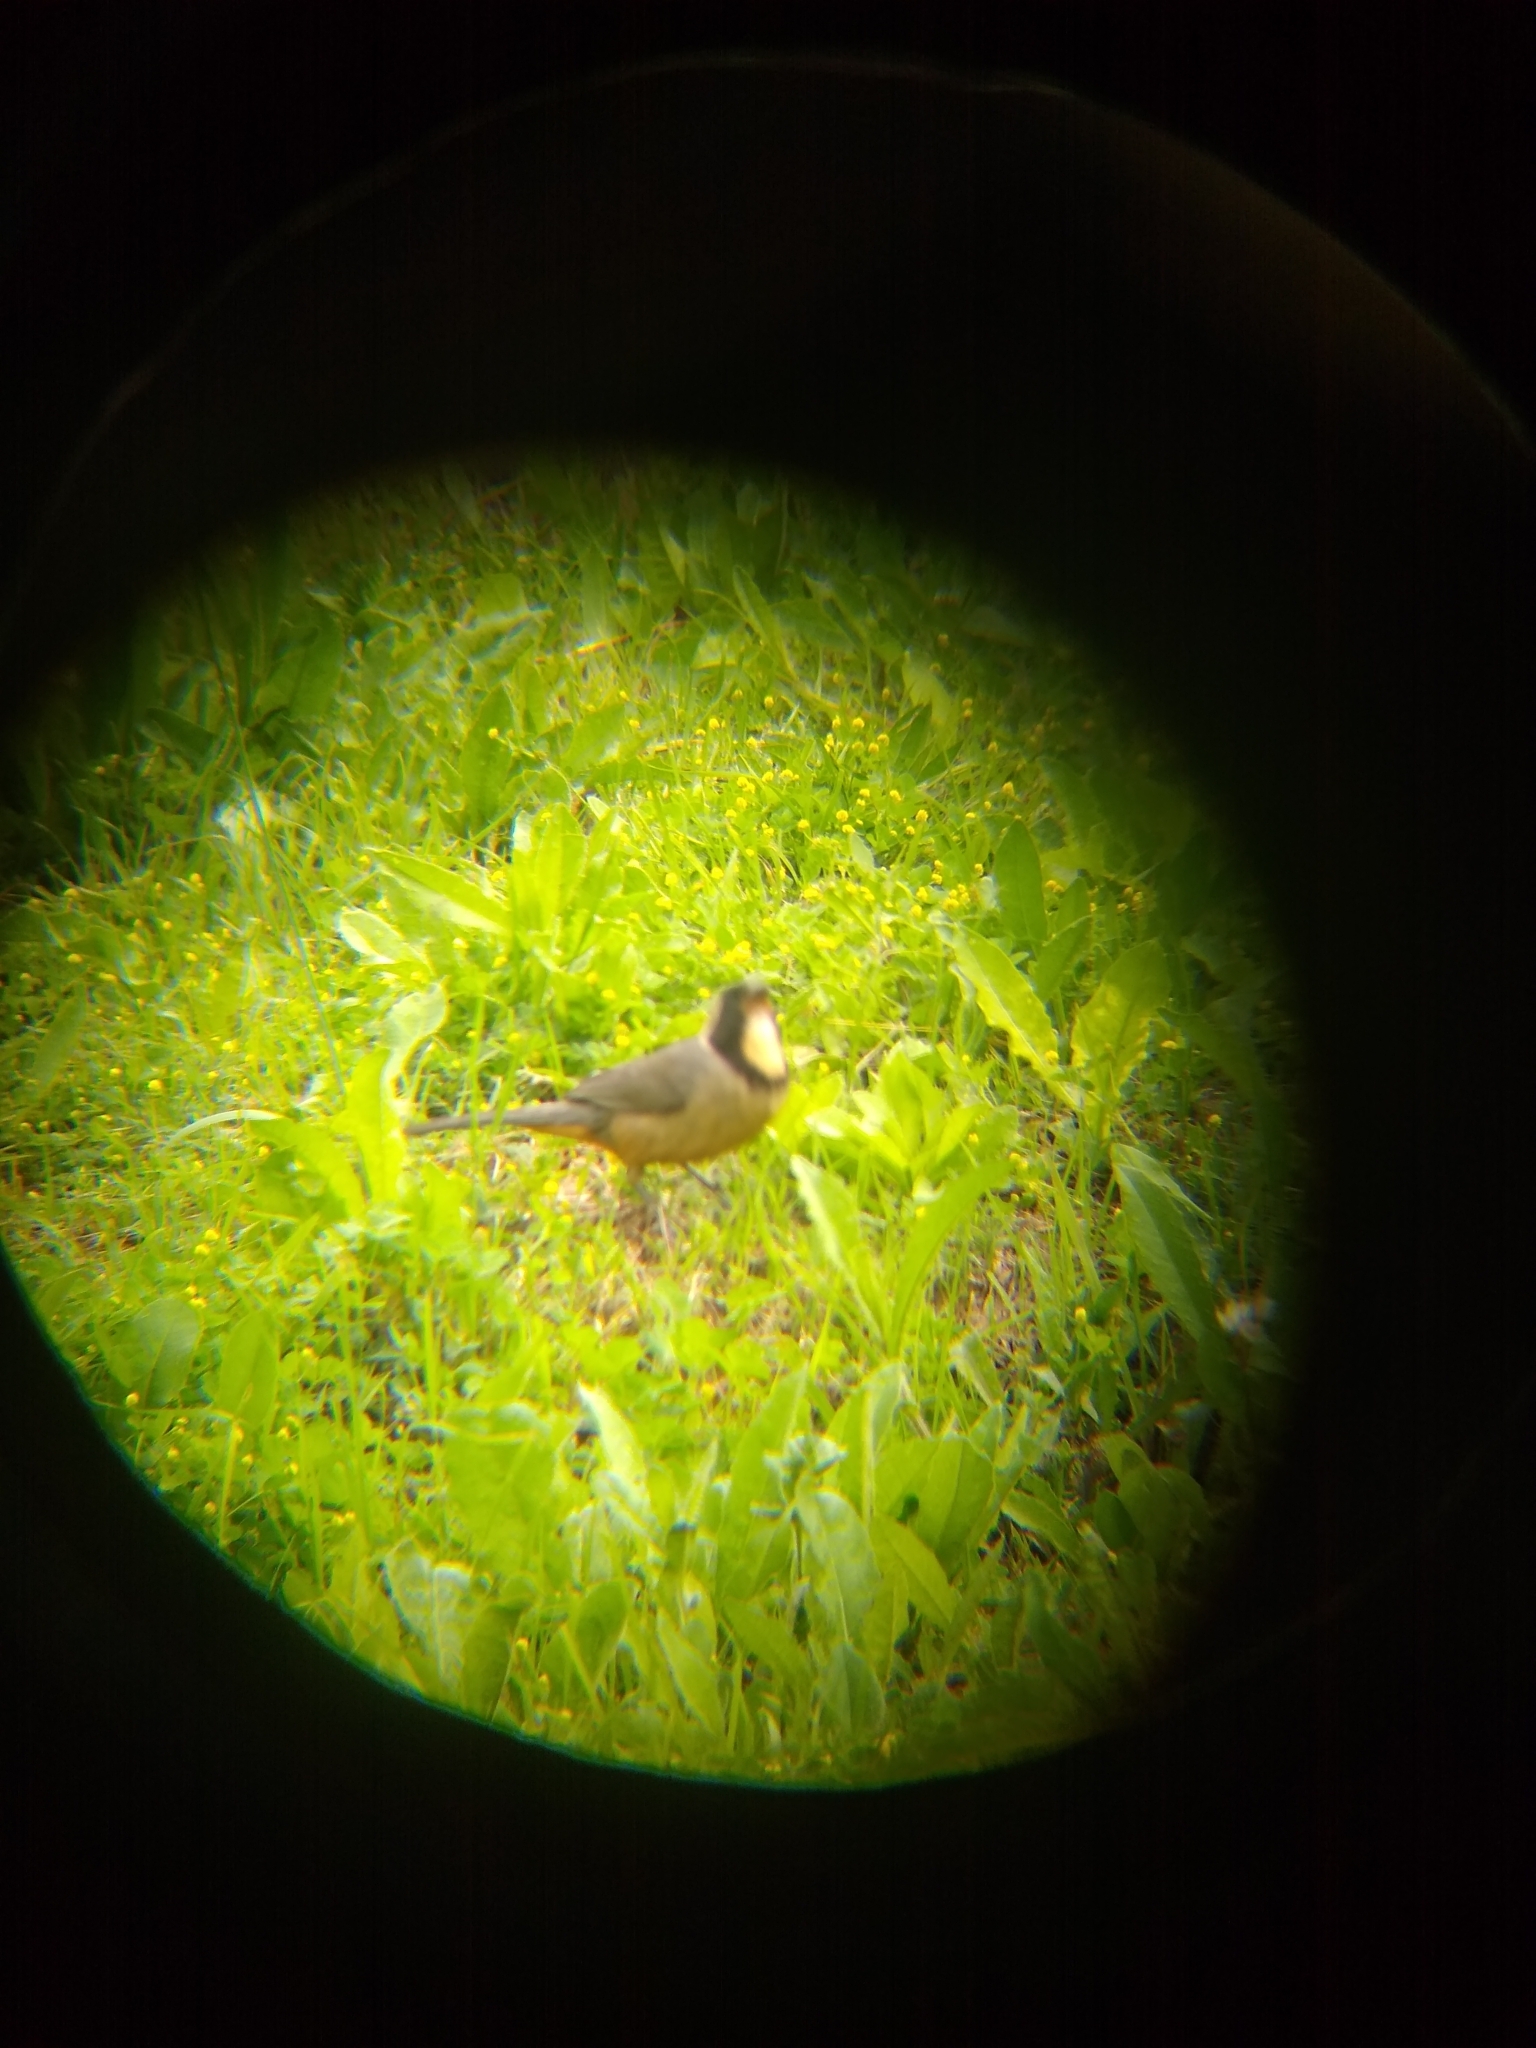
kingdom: Animalia
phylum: Chordata
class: Aves
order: Passeriformes
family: Thraupidae
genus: Saltator
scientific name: Saltator aurantiirostris
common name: Golden-billed saltator
